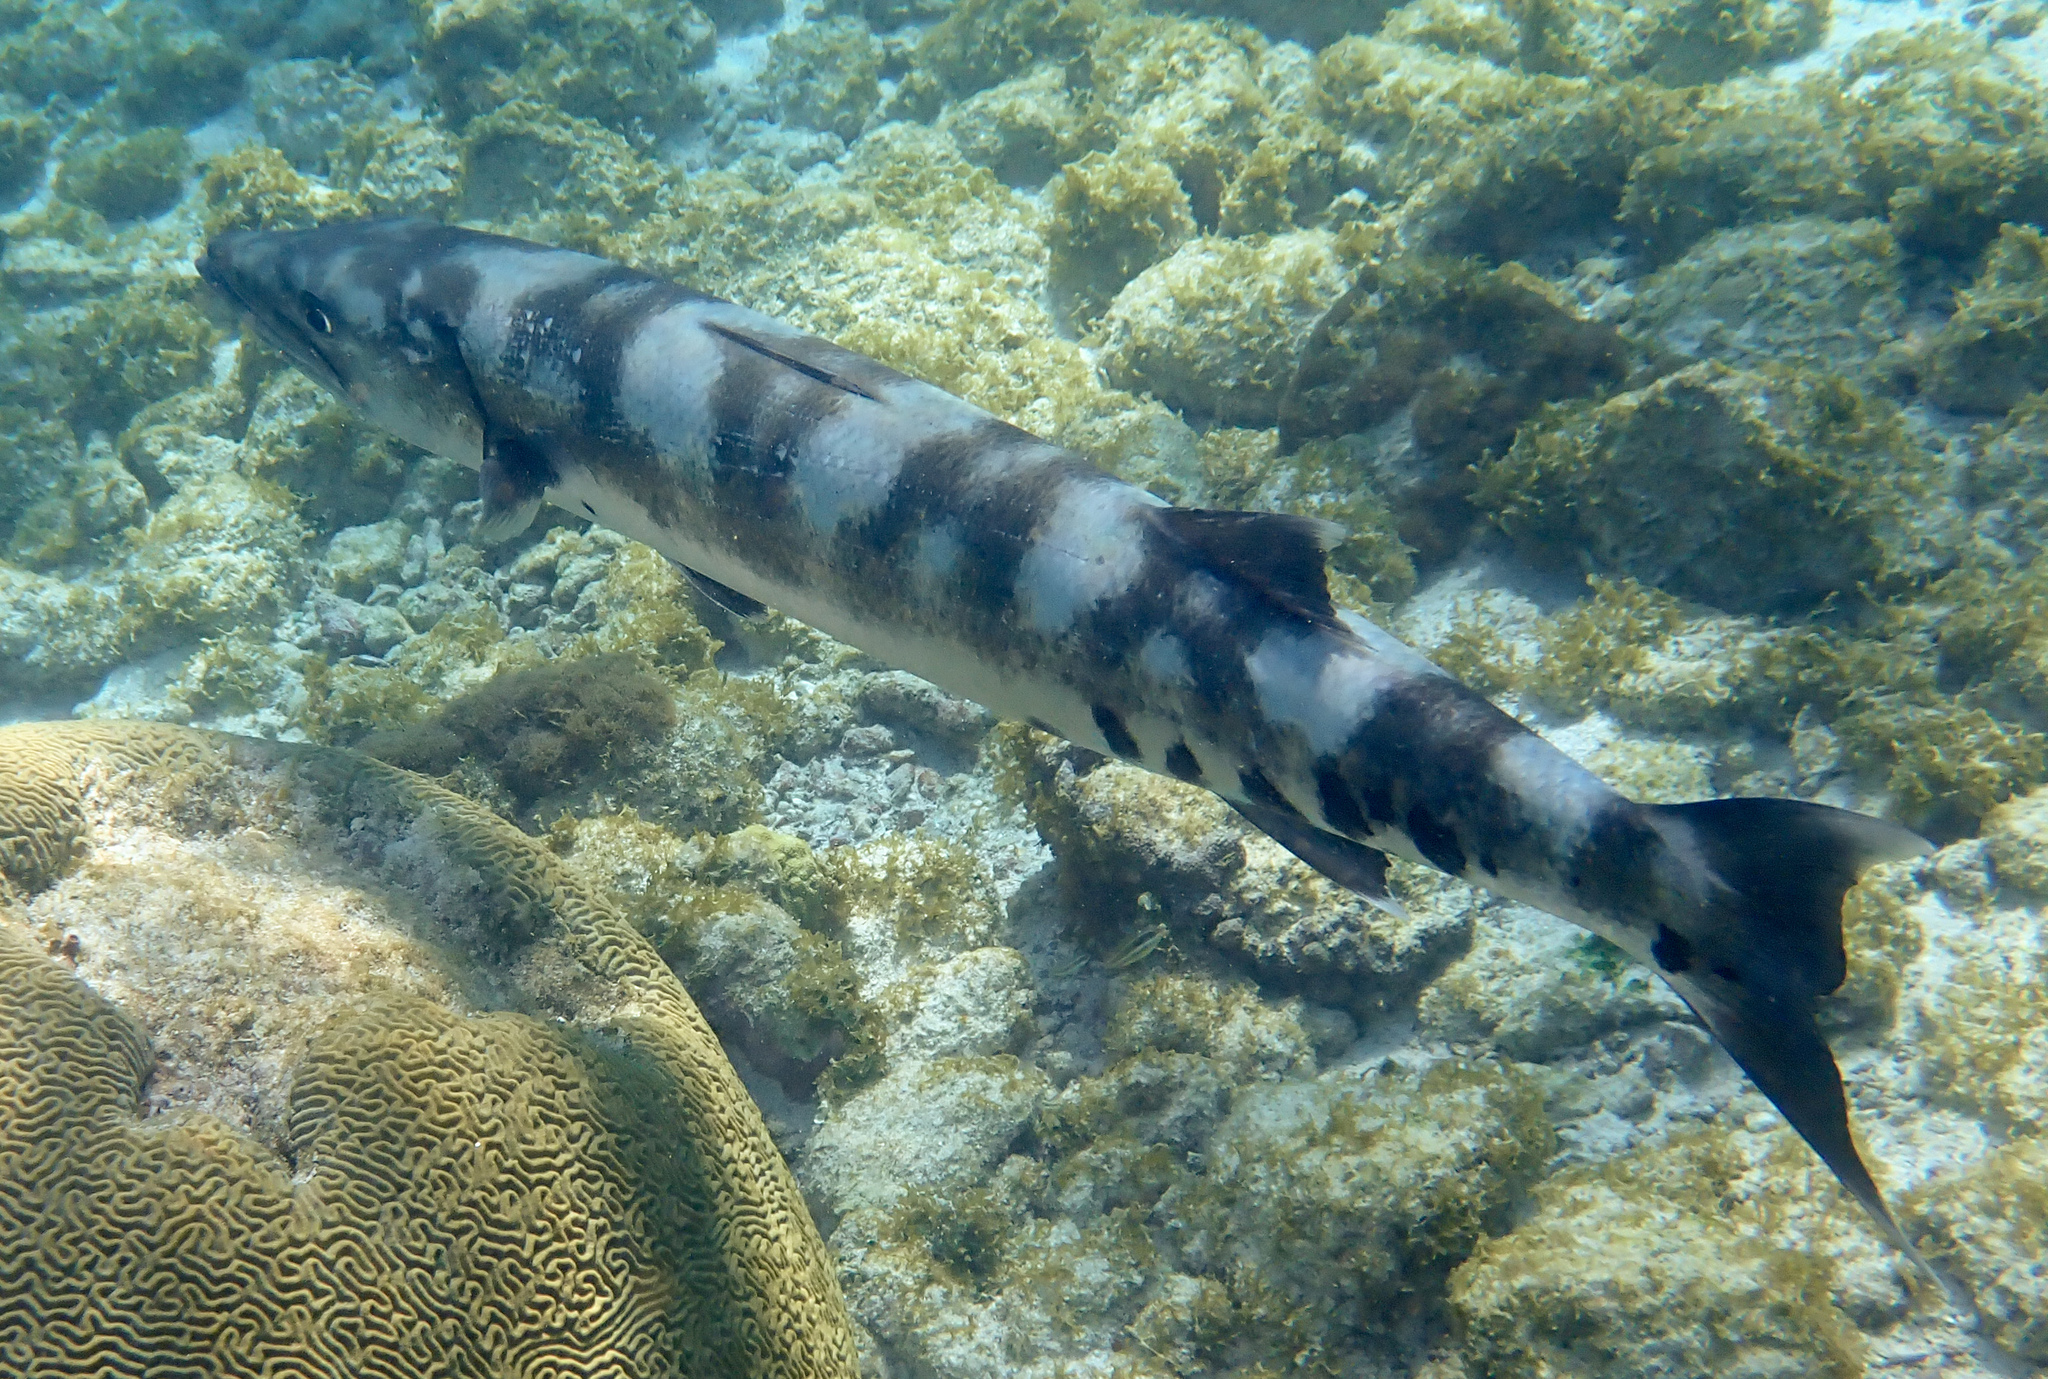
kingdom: Animalia
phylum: Chordata
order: Perciformes
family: Sphyraenidae
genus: Sphyraena
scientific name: Sphyraena barracuda
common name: Great barracuda
